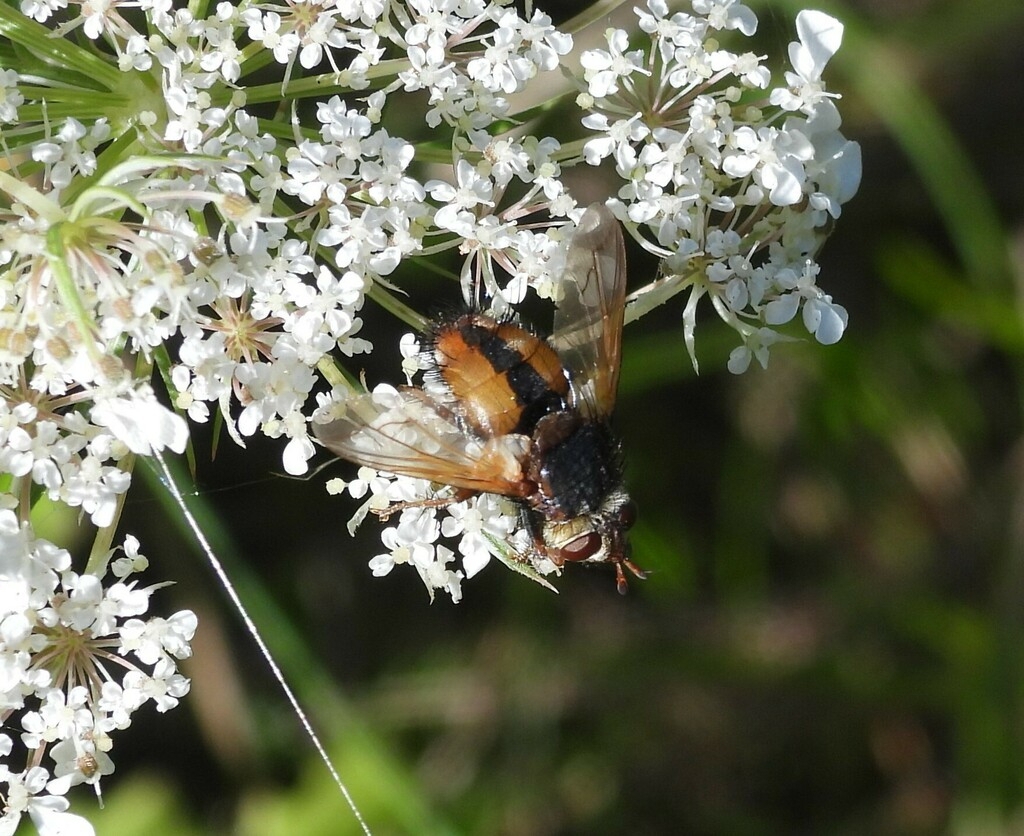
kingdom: Animalia
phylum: Arthropoda
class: Insecta
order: Diptera
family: Tachinidae
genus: Tachina
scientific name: Tachina fera
